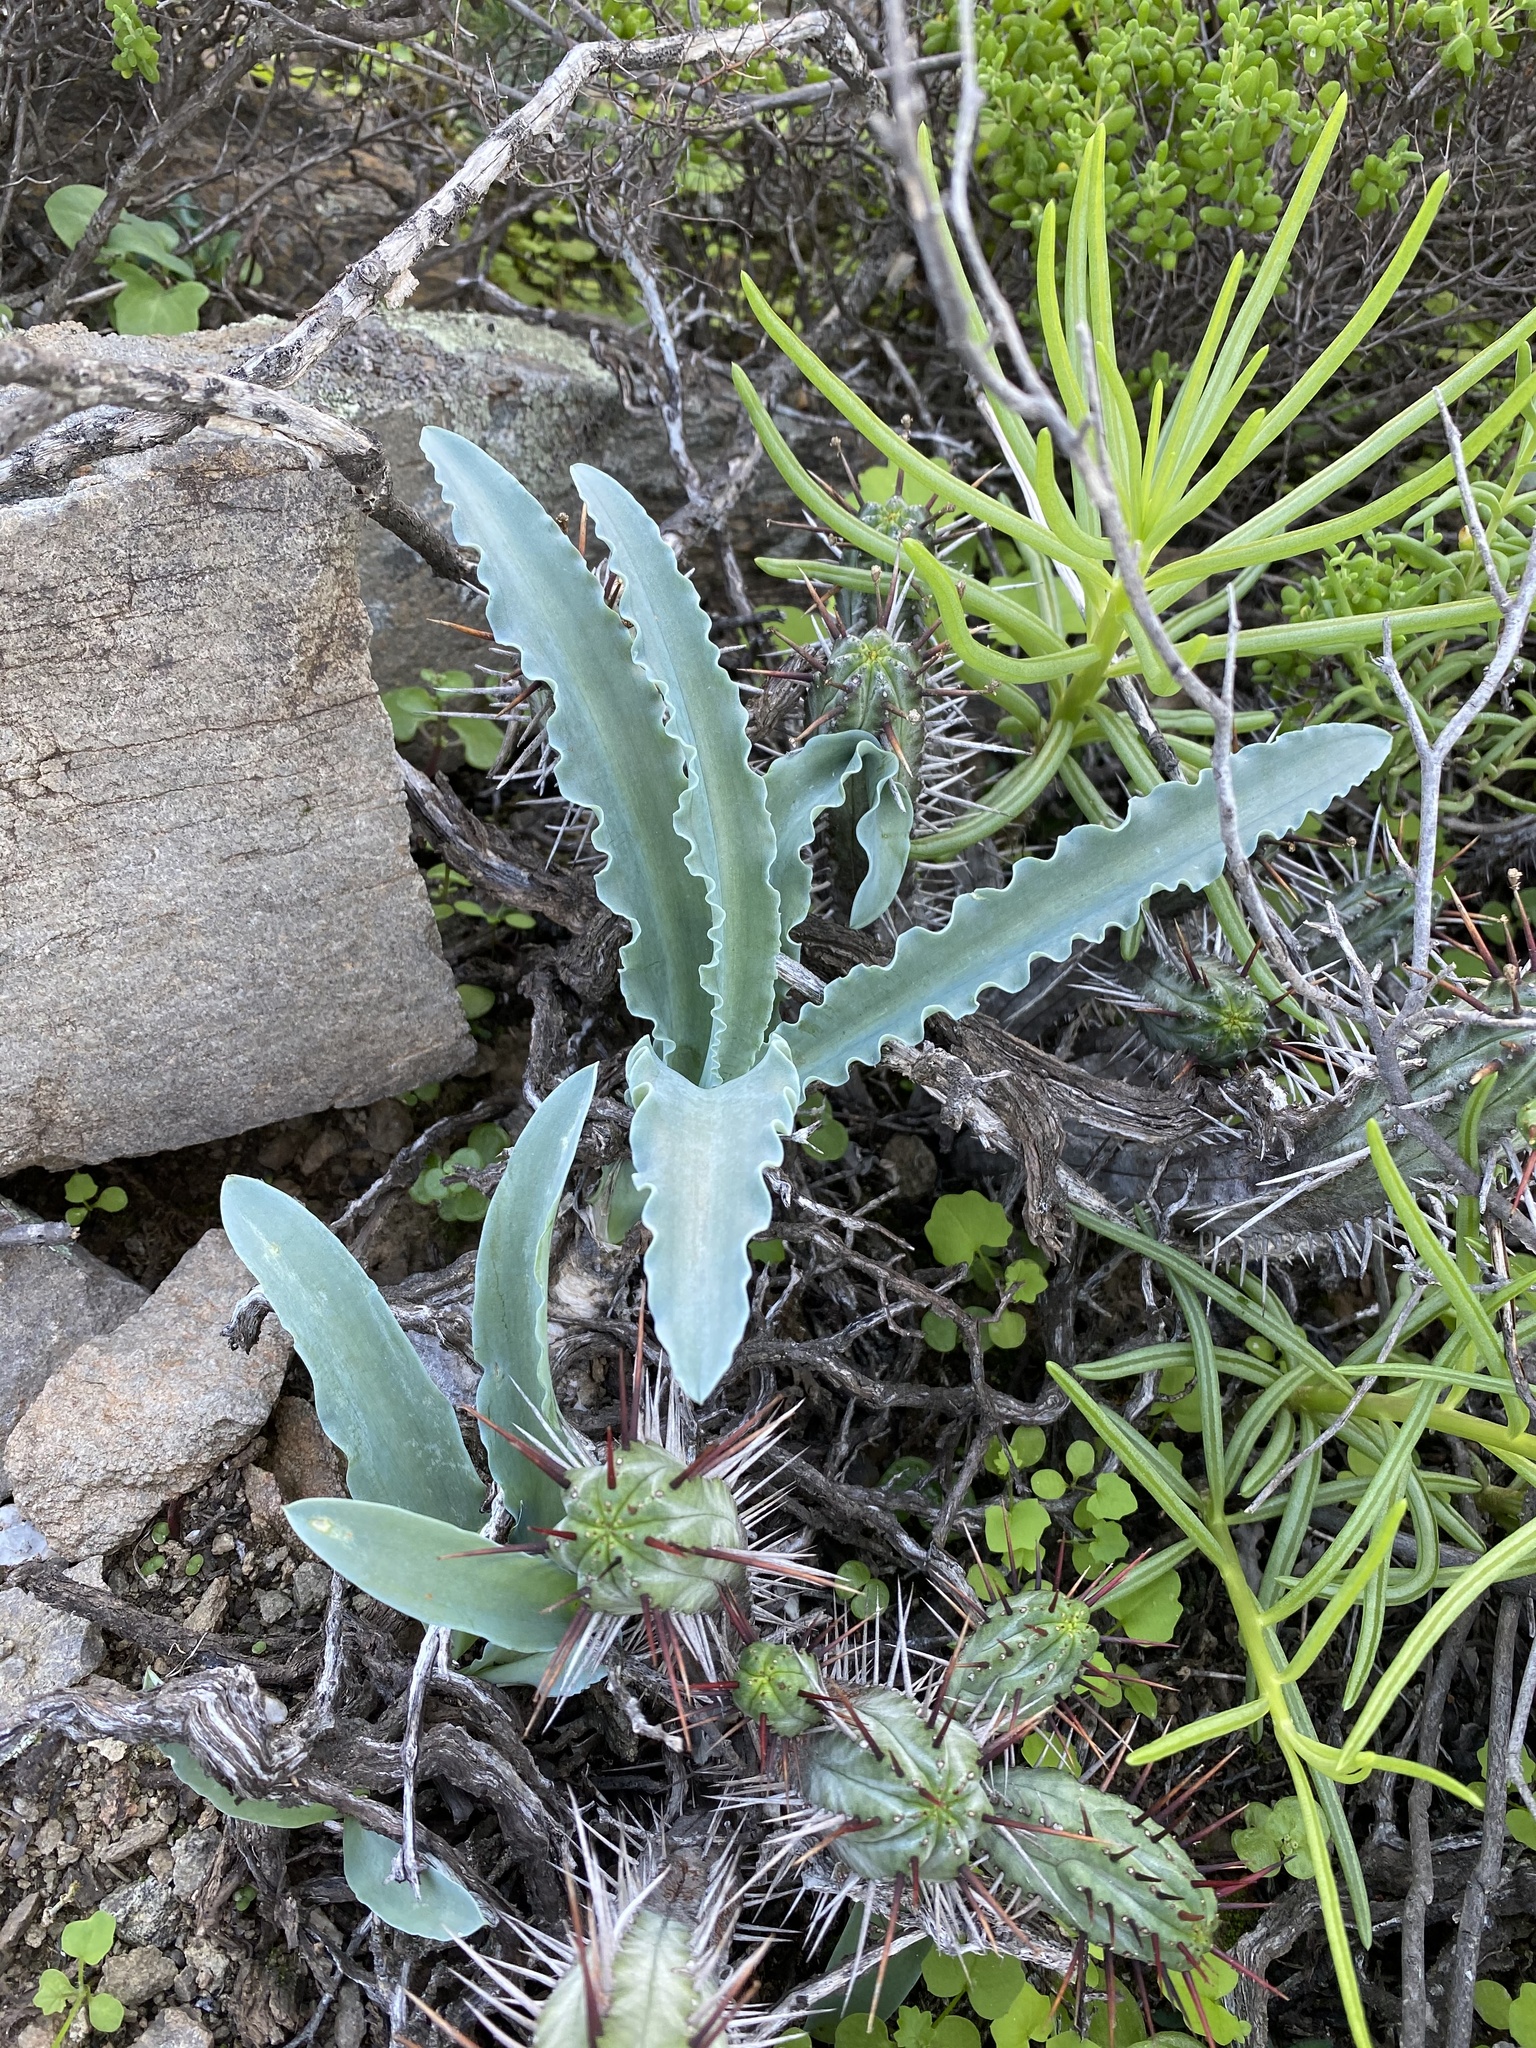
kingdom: Plantae
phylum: Tracheophyta
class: Liliopsida
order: Asparagales
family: Asparagaceae
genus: Veltheimia
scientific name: Veltheimia capensis
